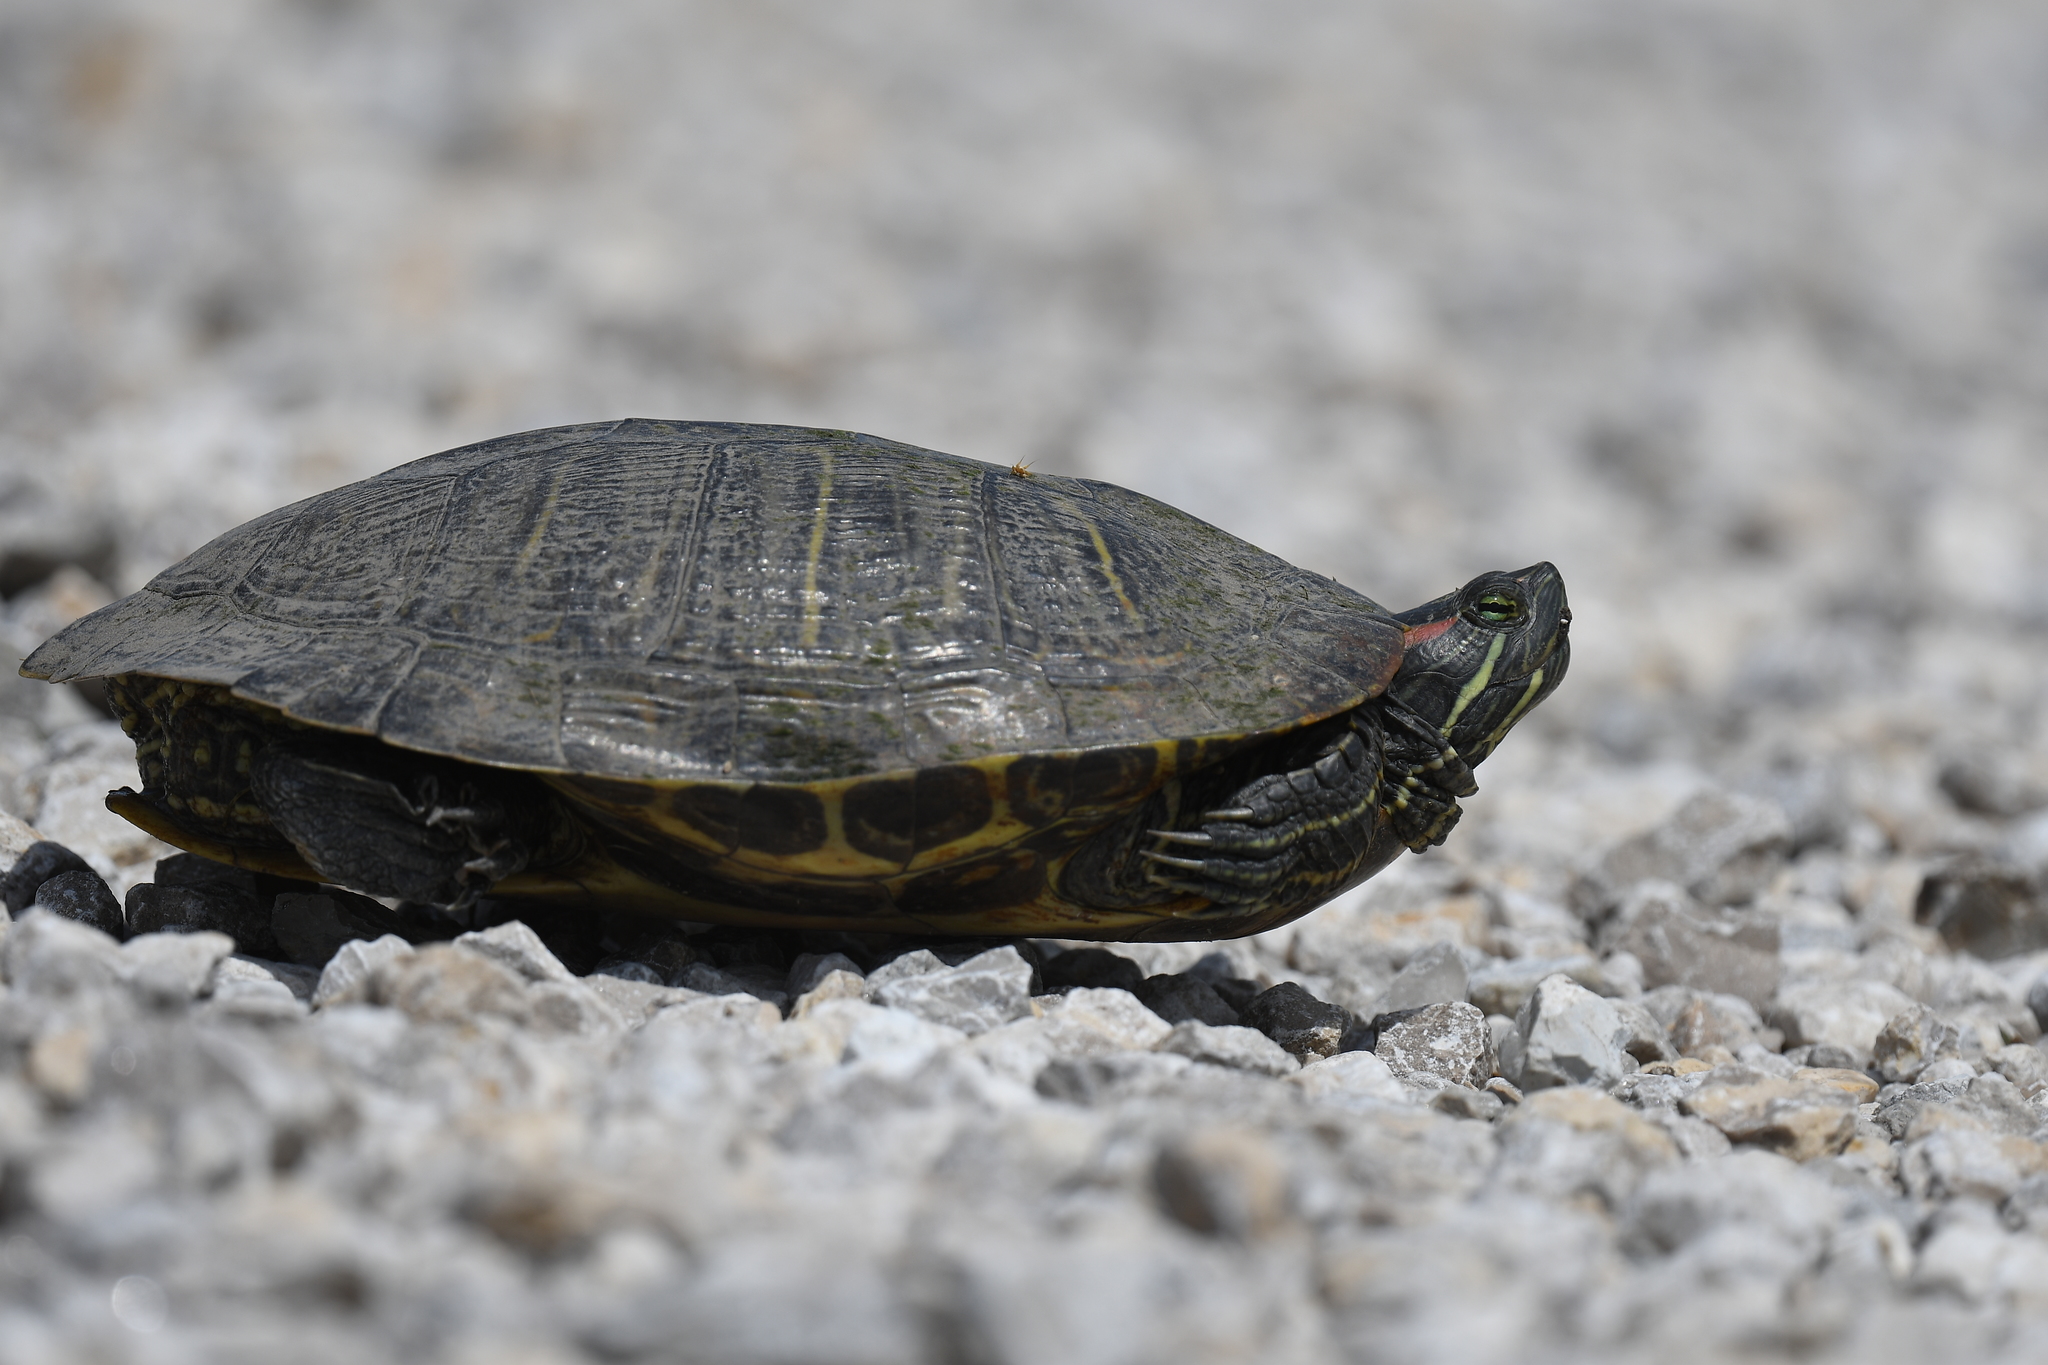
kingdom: Animalia
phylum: Chordata
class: Testudines
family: Emydidae
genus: Trachemys
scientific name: Trachemys scripta
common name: Slider
